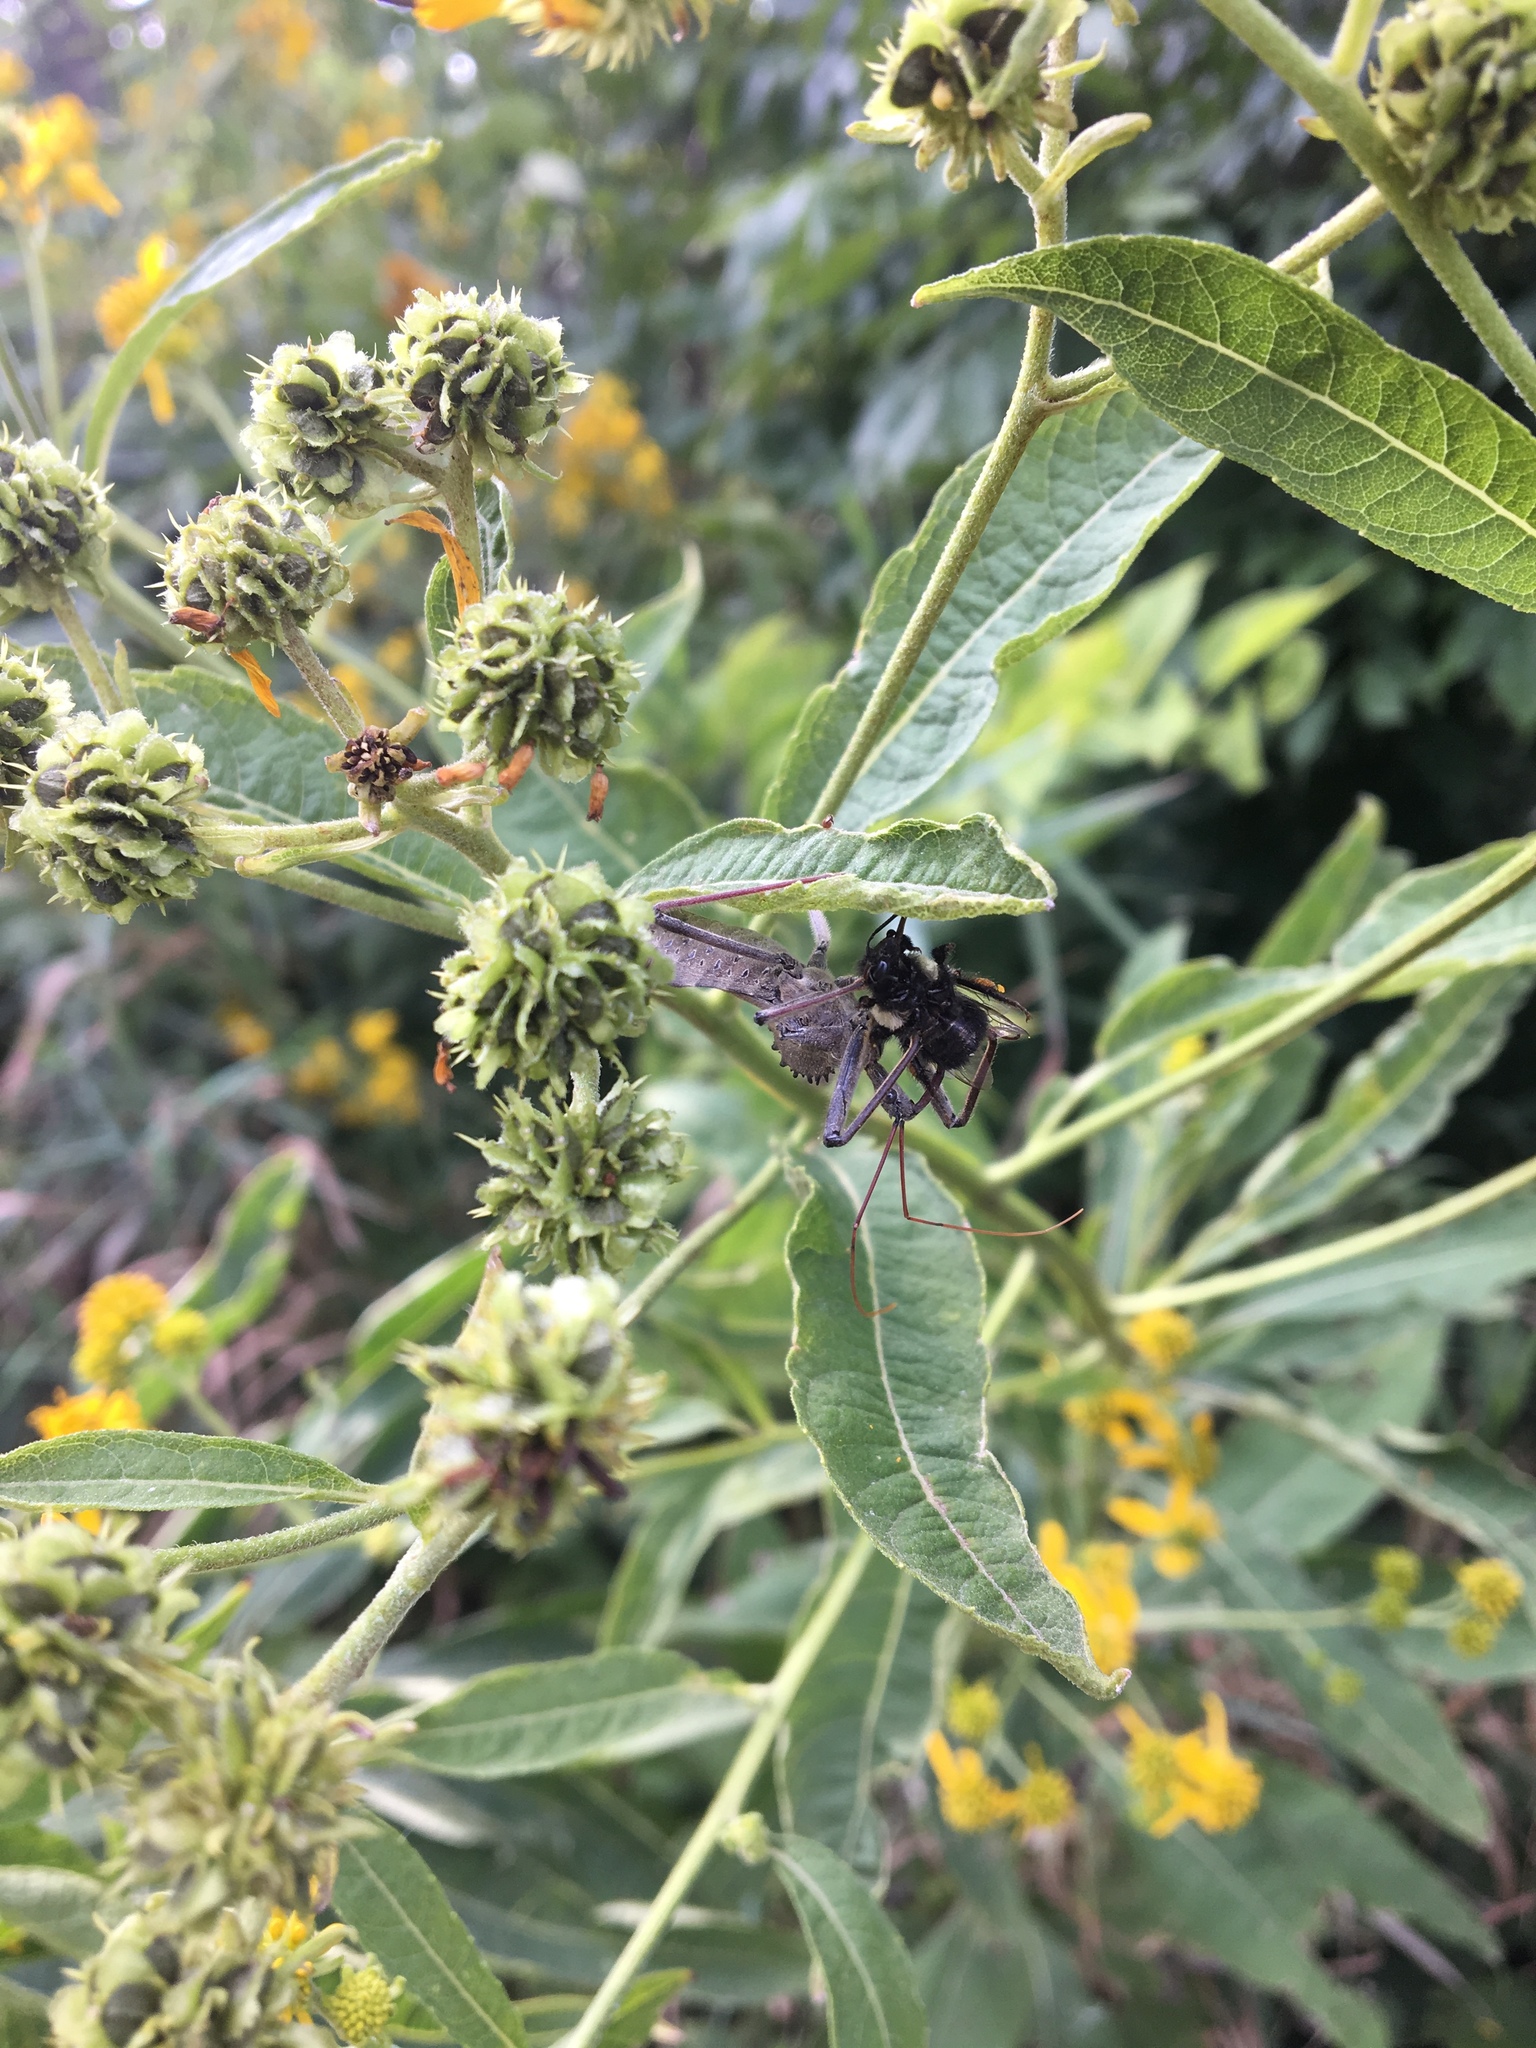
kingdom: Animalia
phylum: Arthropoda
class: Insecta
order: Hemiptera
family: Reduviidae
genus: Arilus
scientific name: Arilus cristatus
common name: North american wheel bug
